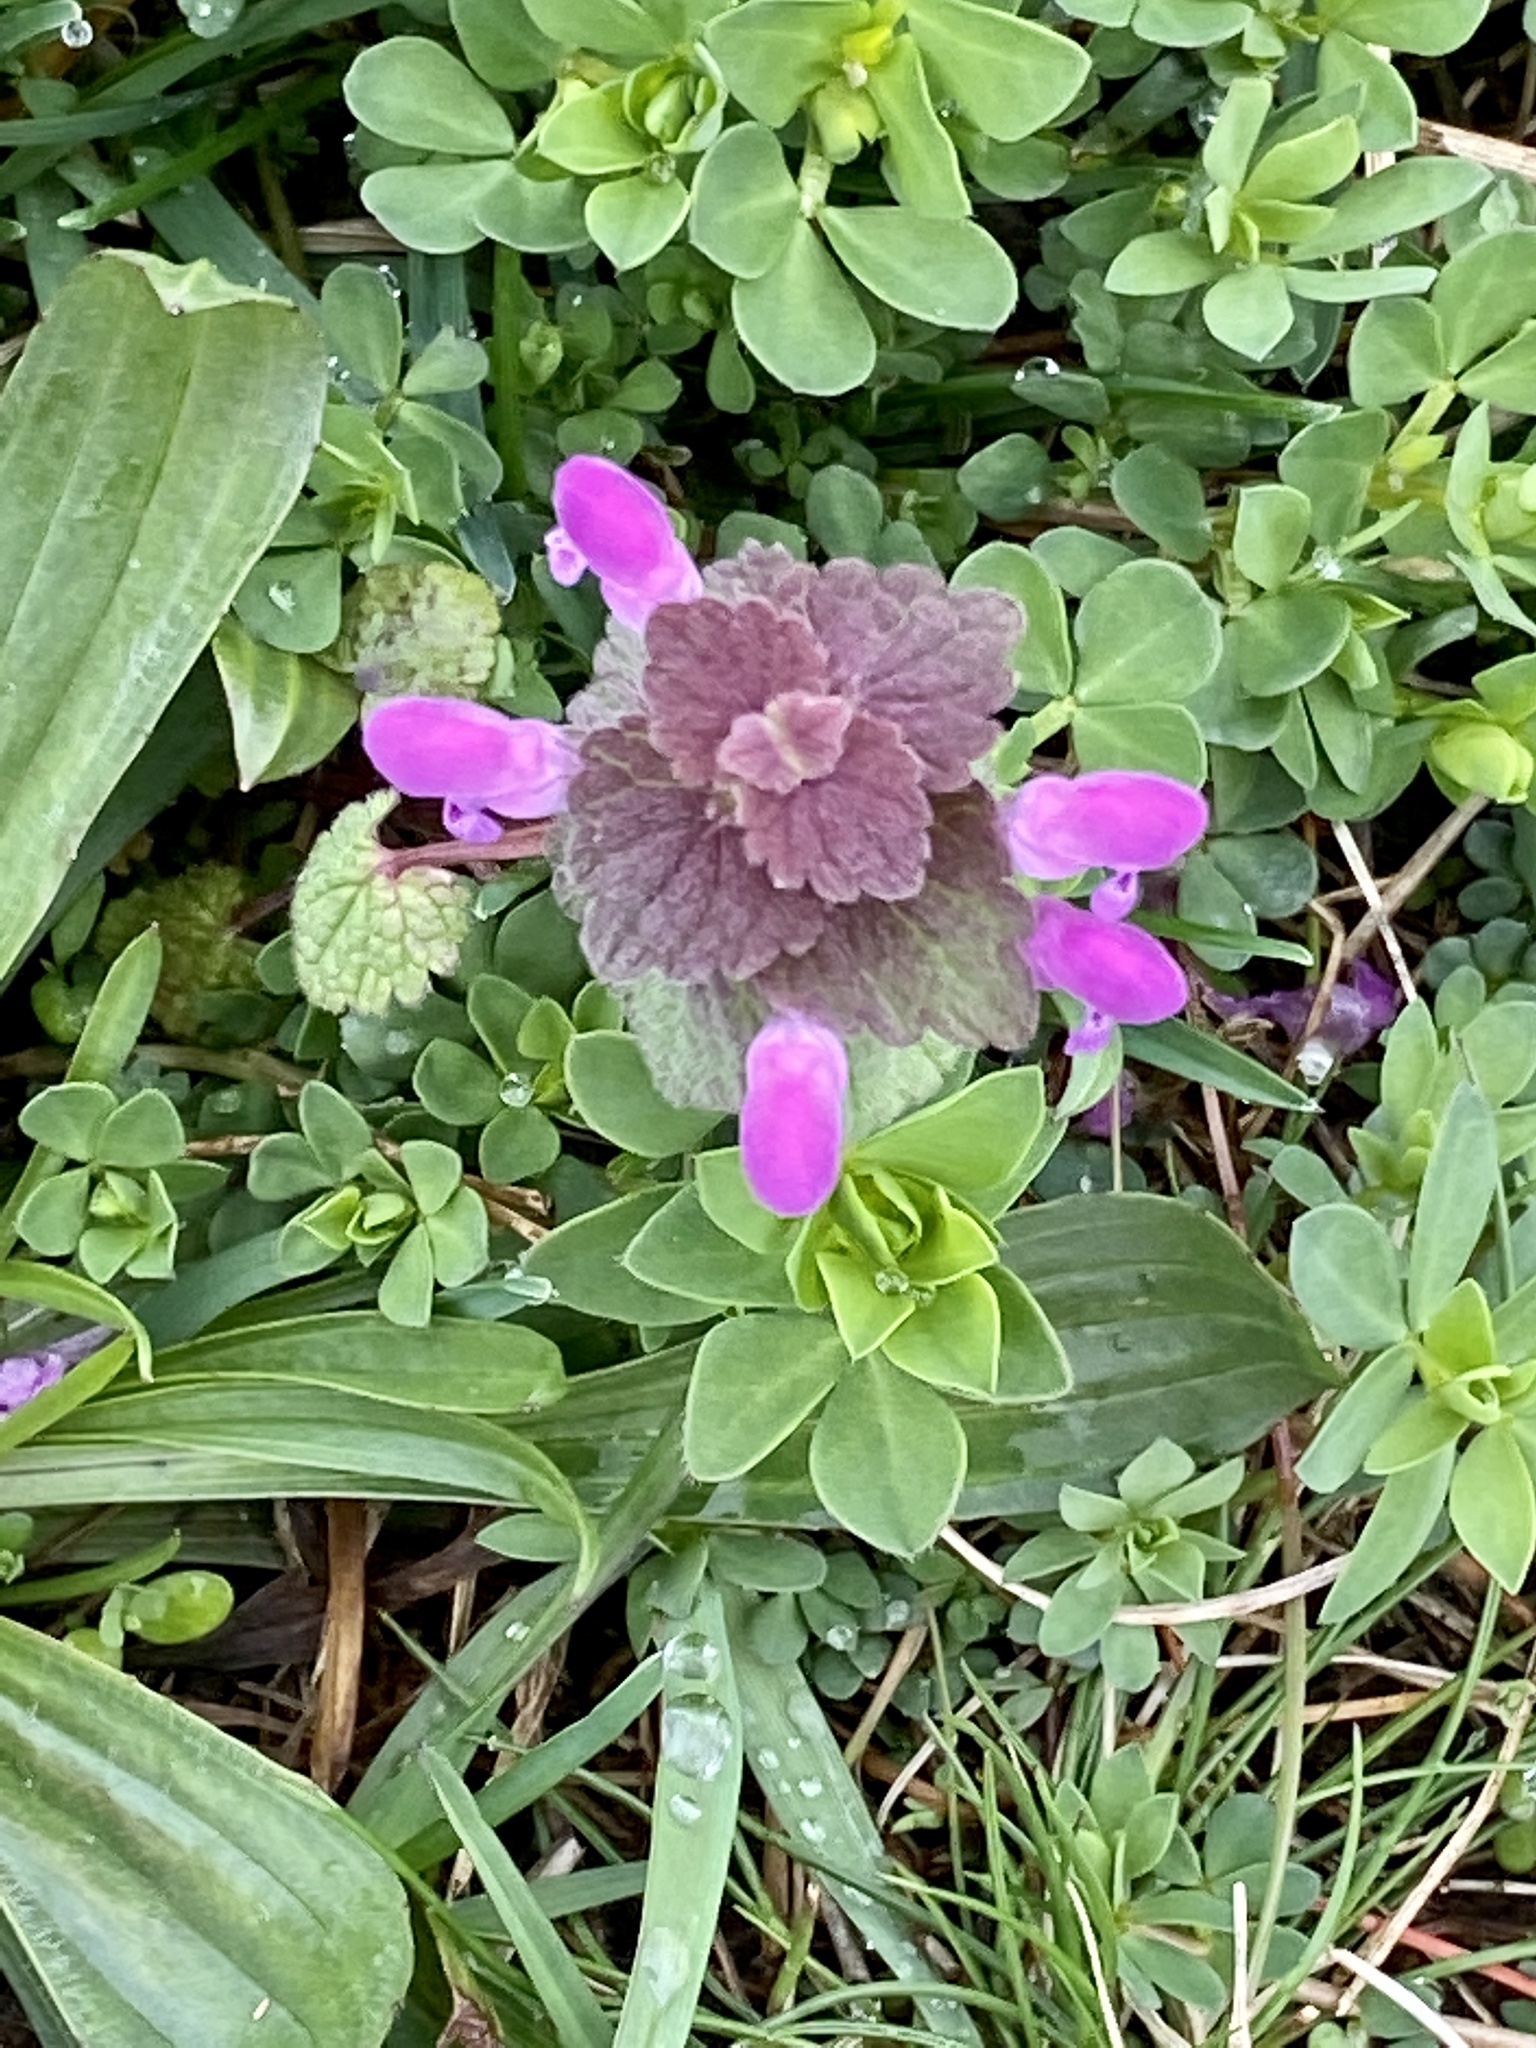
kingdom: Plantae
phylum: Tracheophyta
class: Magnoliopsida
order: Lamiales
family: Lamiaceae
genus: Lamium
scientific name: Lamium purpureum
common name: Red dead-nettle
